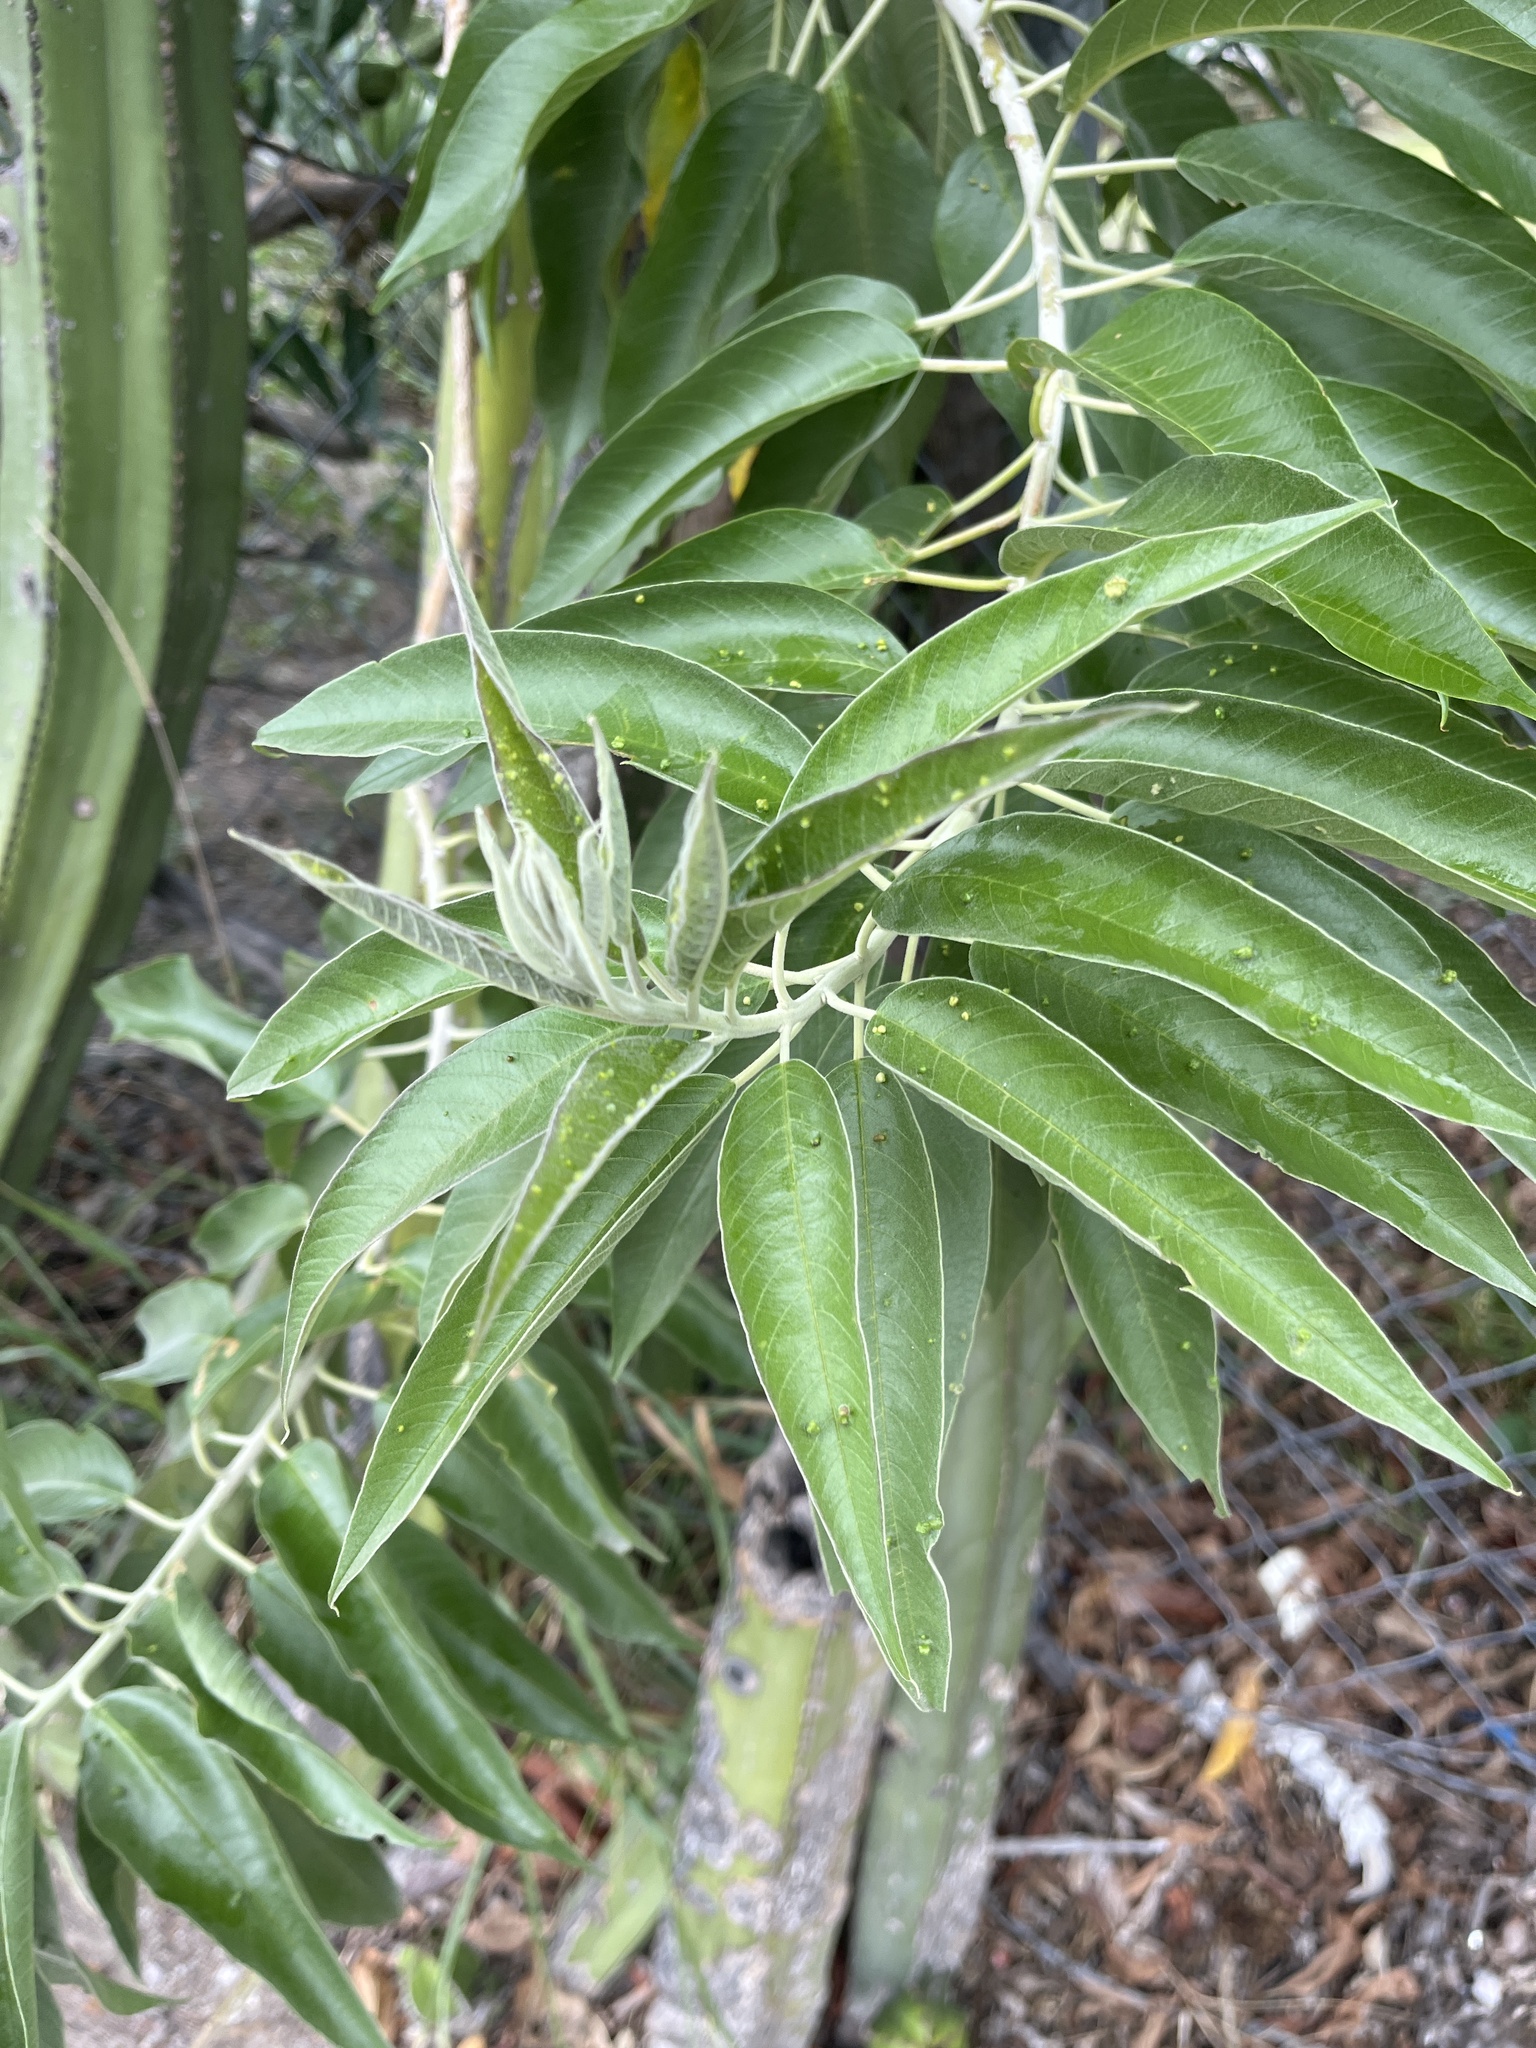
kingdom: Plantae
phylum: Tracheophyta
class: Magnoliopsida
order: Solanales
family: Convolvulaceae
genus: Ipomoea
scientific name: Ipomoea murucoides
